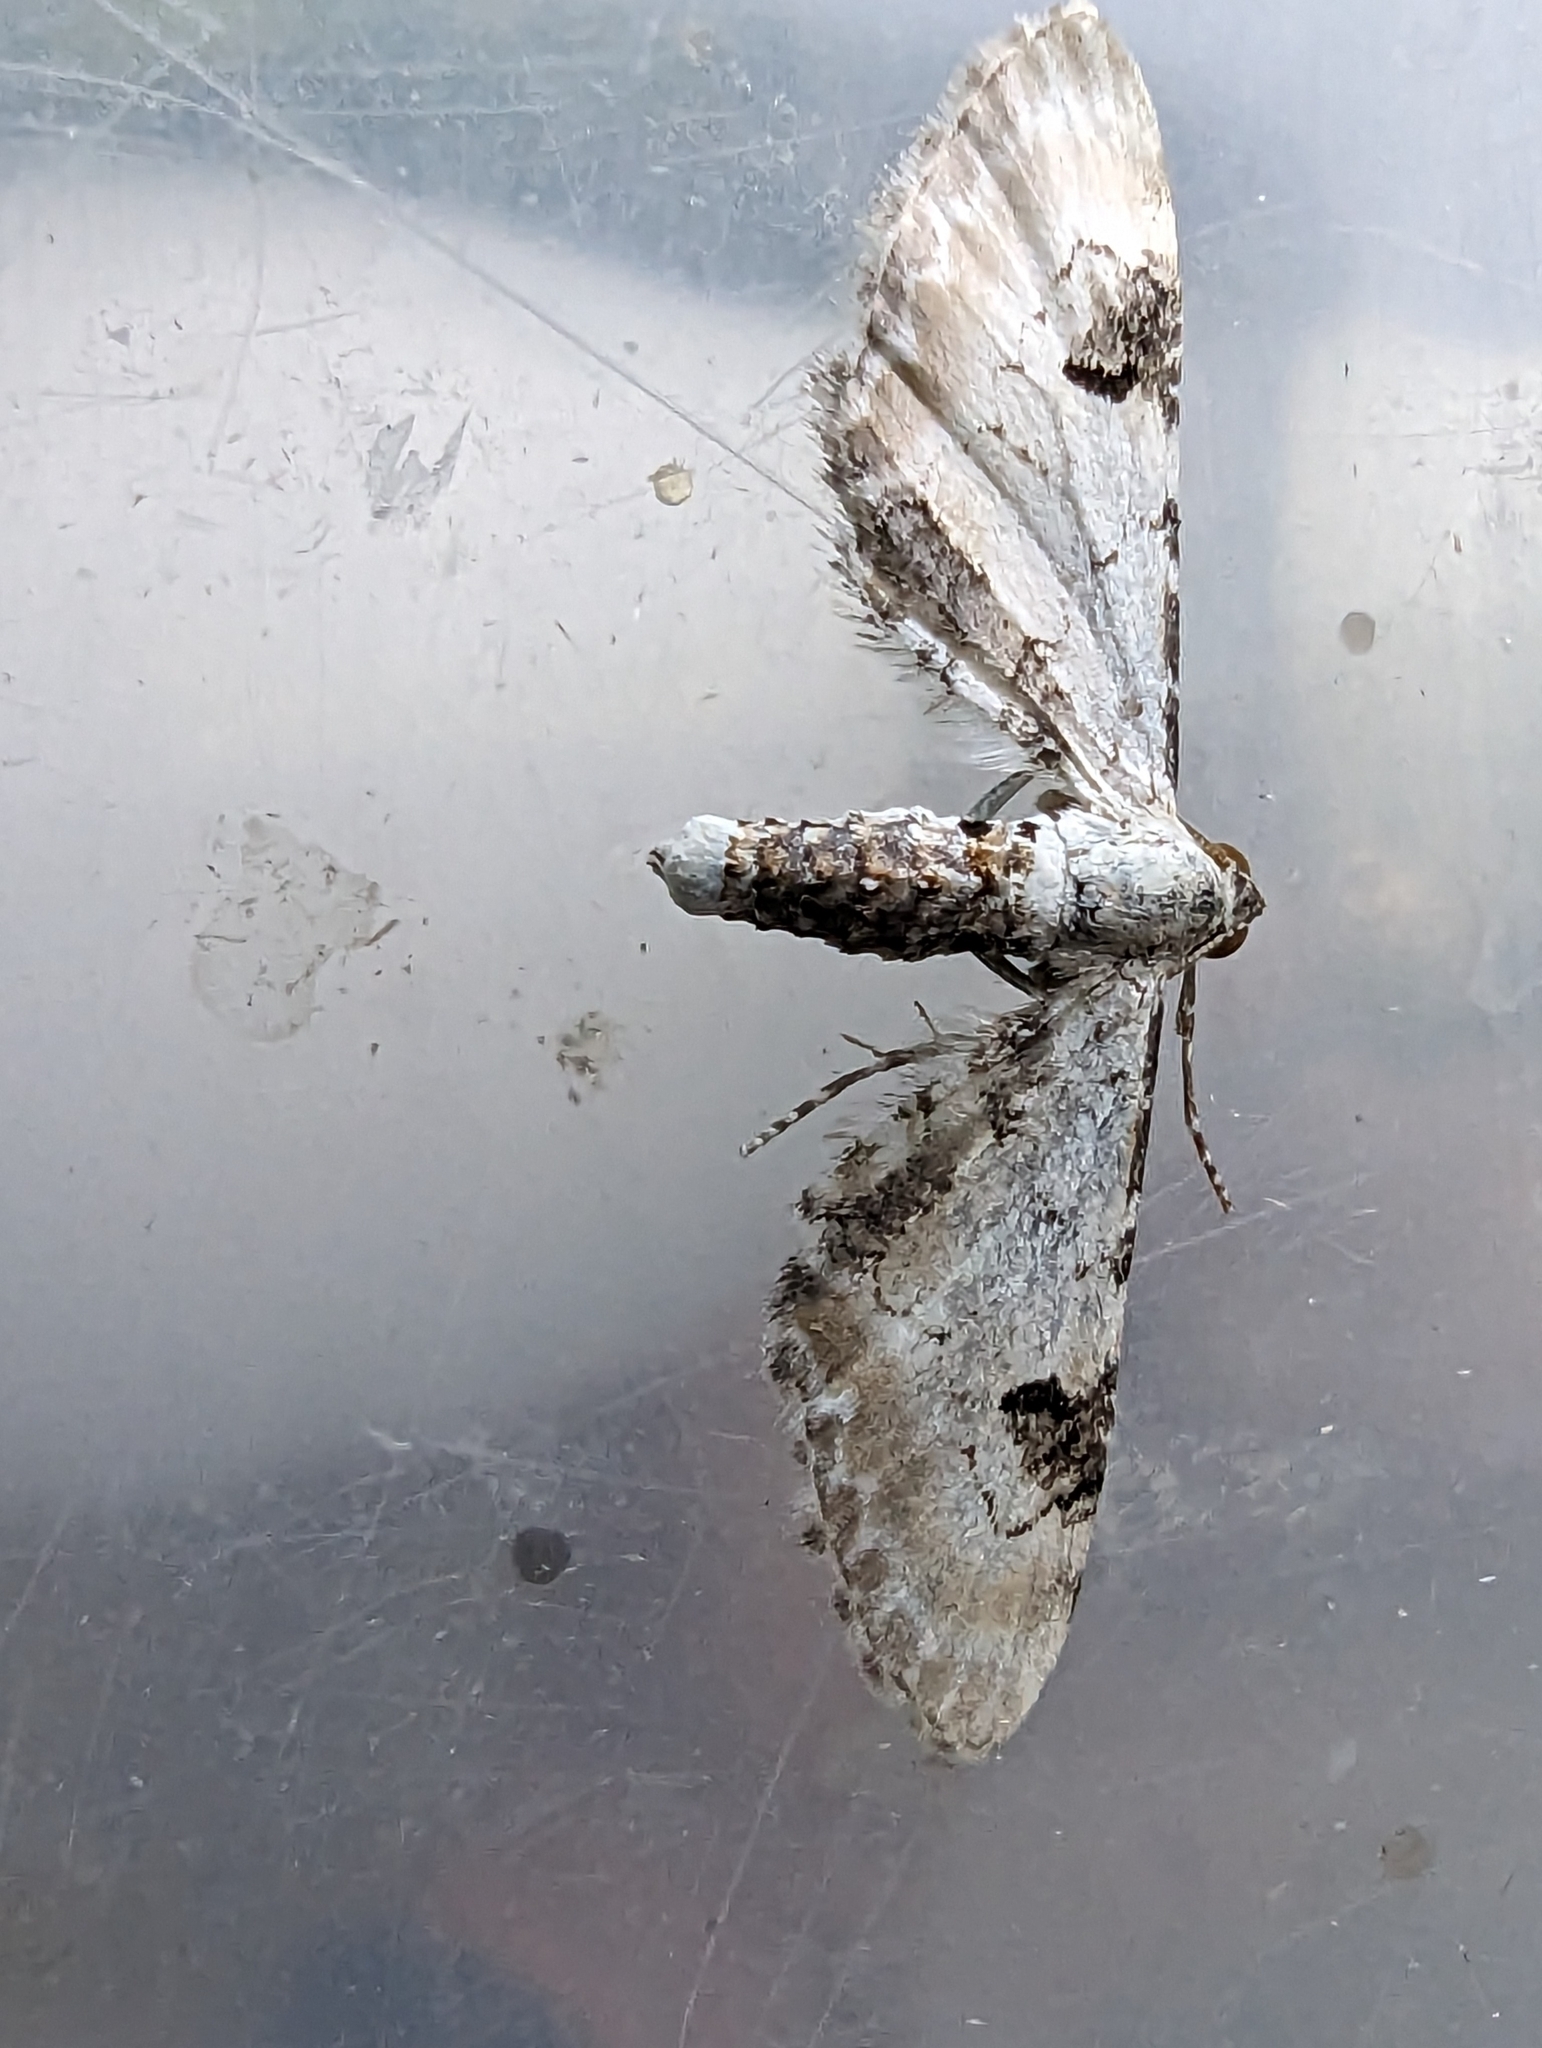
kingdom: Animalia
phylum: Arthropoda
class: Insecta
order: Lepidoptera
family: Geometridae
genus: Eupithecia
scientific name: Eupithecia centaureata
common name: Lime-speck pug
